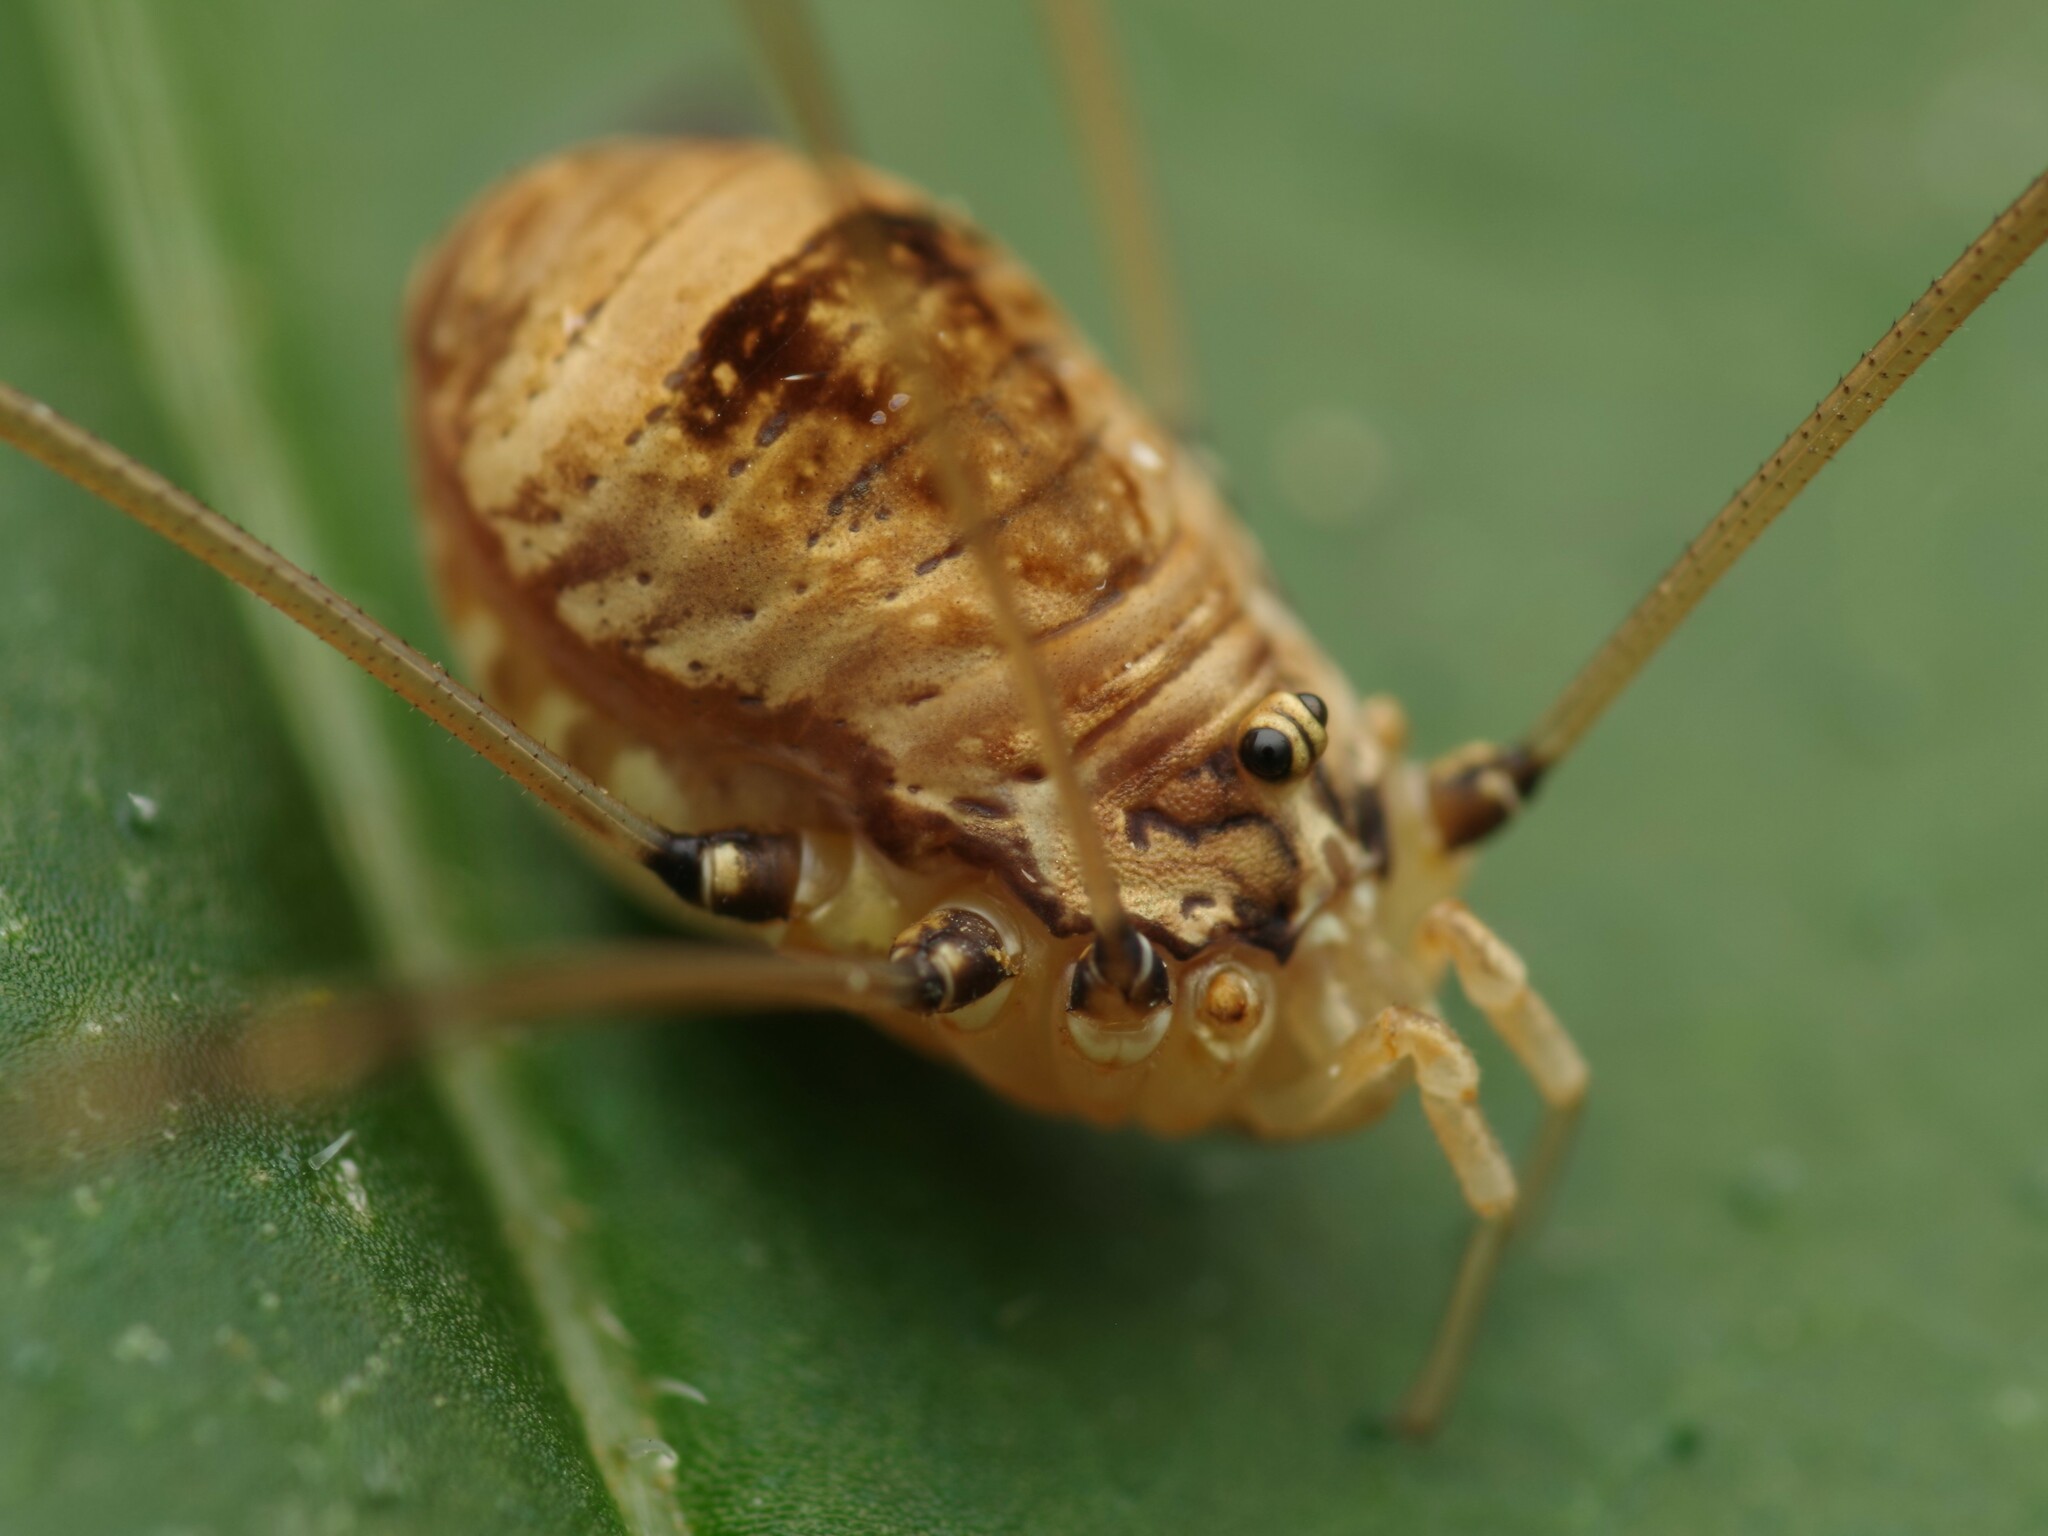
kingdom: Animalia
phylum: Arthropoda
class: Arachnida
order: Opiliones
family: Sclerosomatidae
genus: Leiobunum
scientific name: Leiobunum blackwalli
